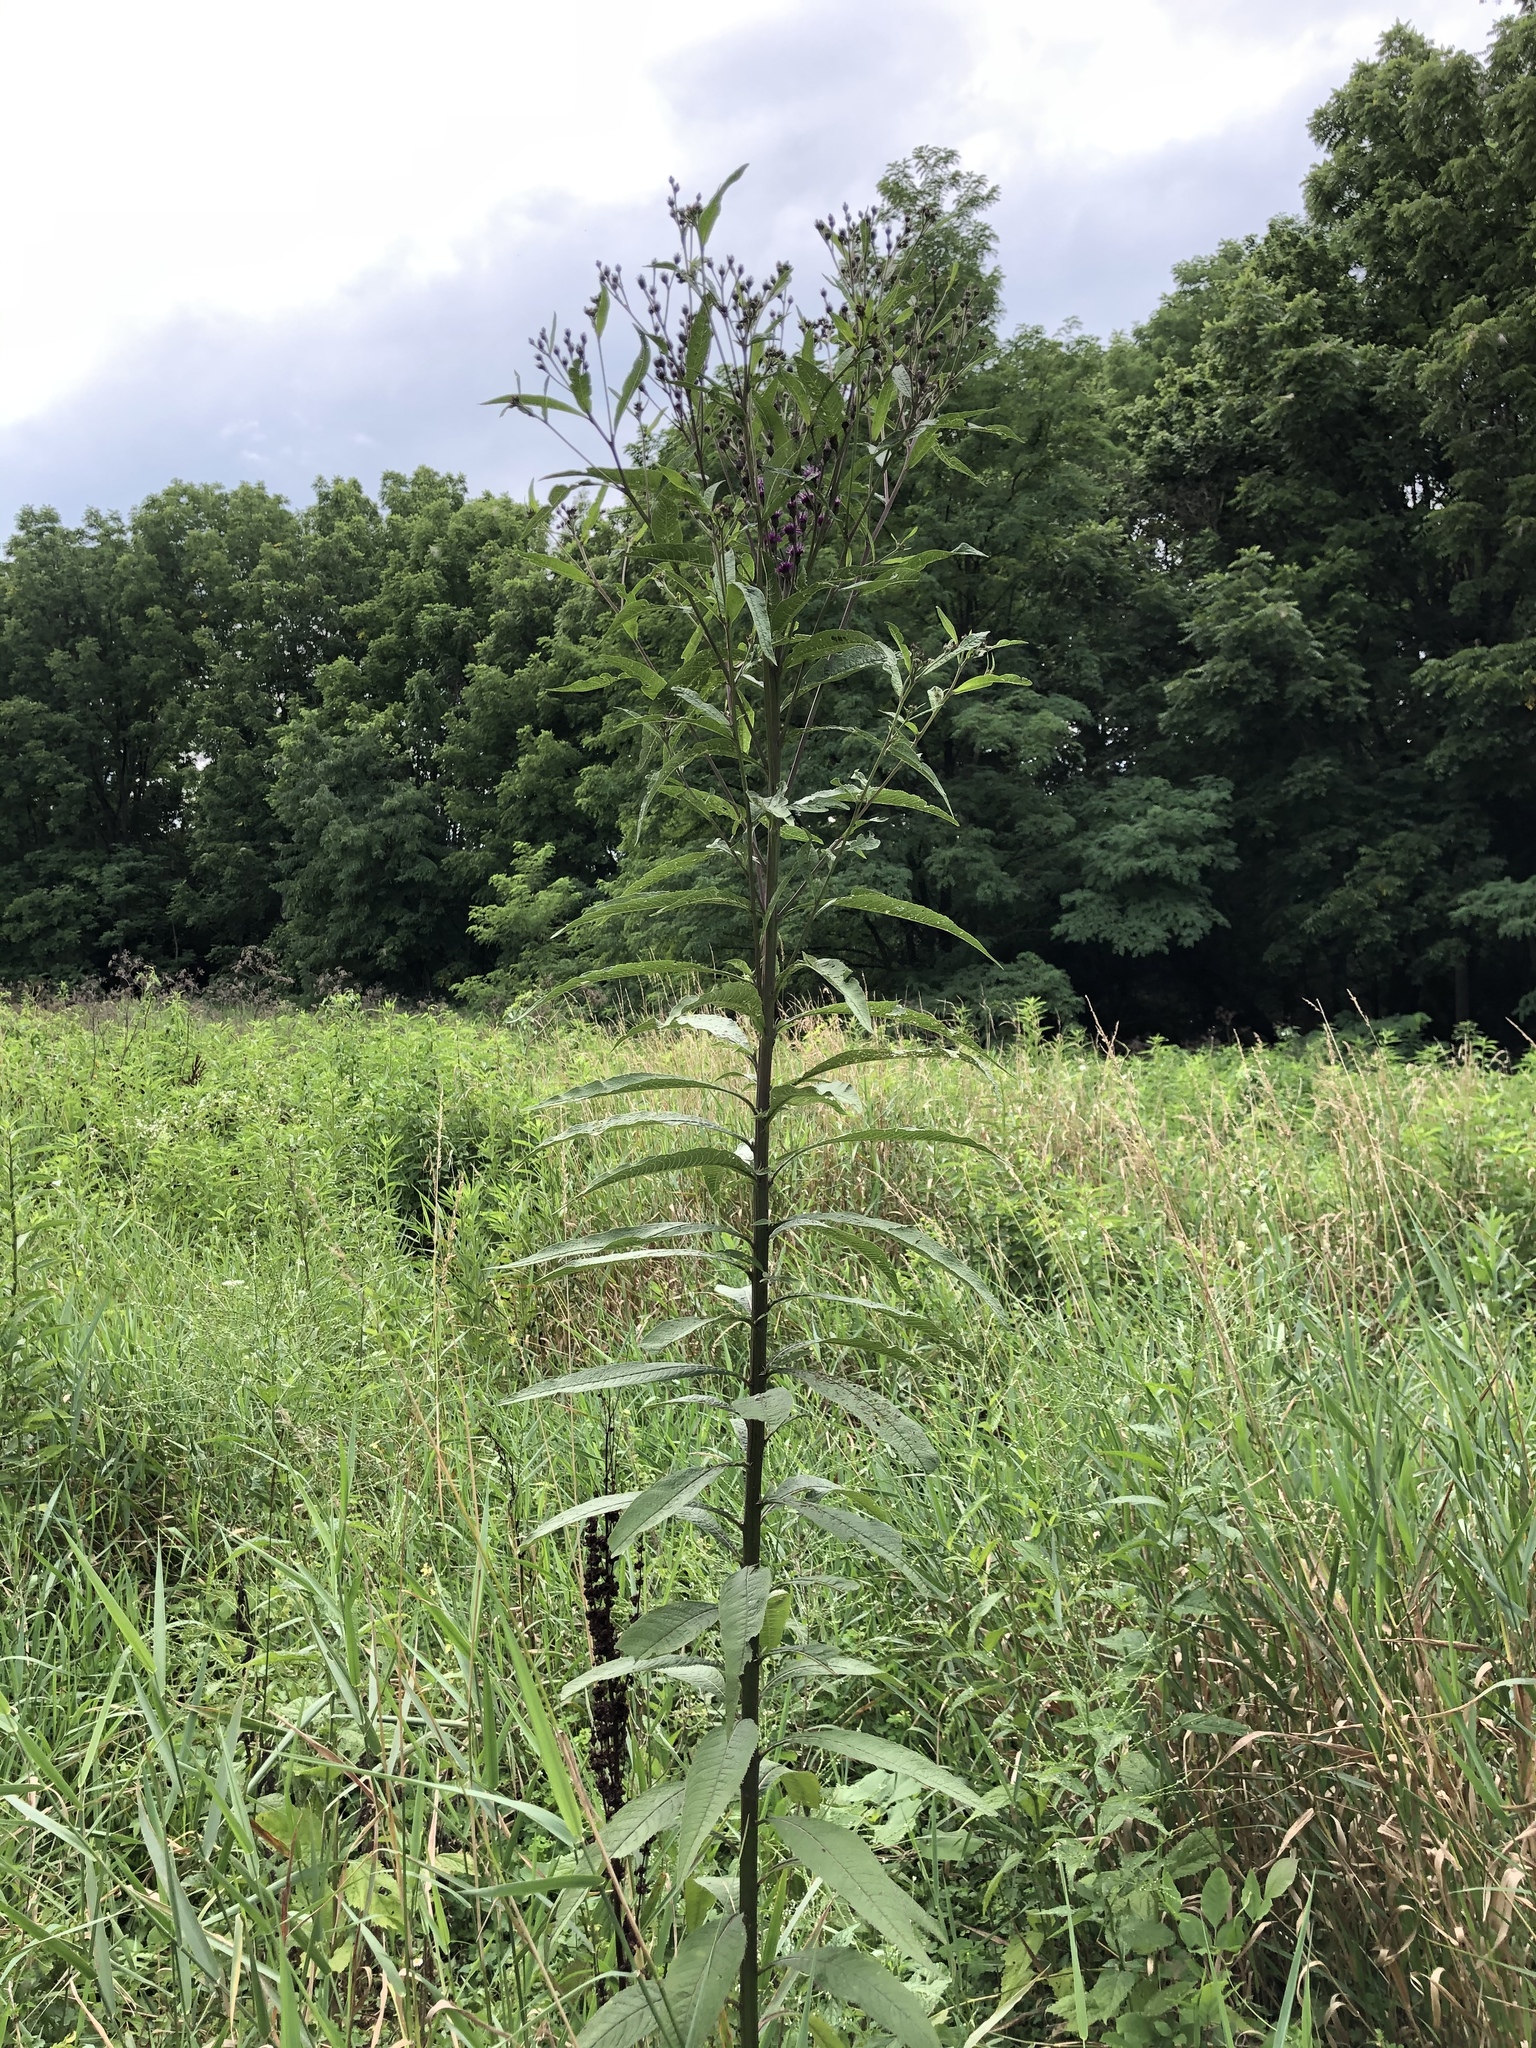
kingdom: Plantae
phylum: Tracheophyta
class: Magnoliopsida
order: Asterales
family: Asteraceae
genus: Vernonia
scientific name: Vernonia noveboracensis
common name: New york ironweed
